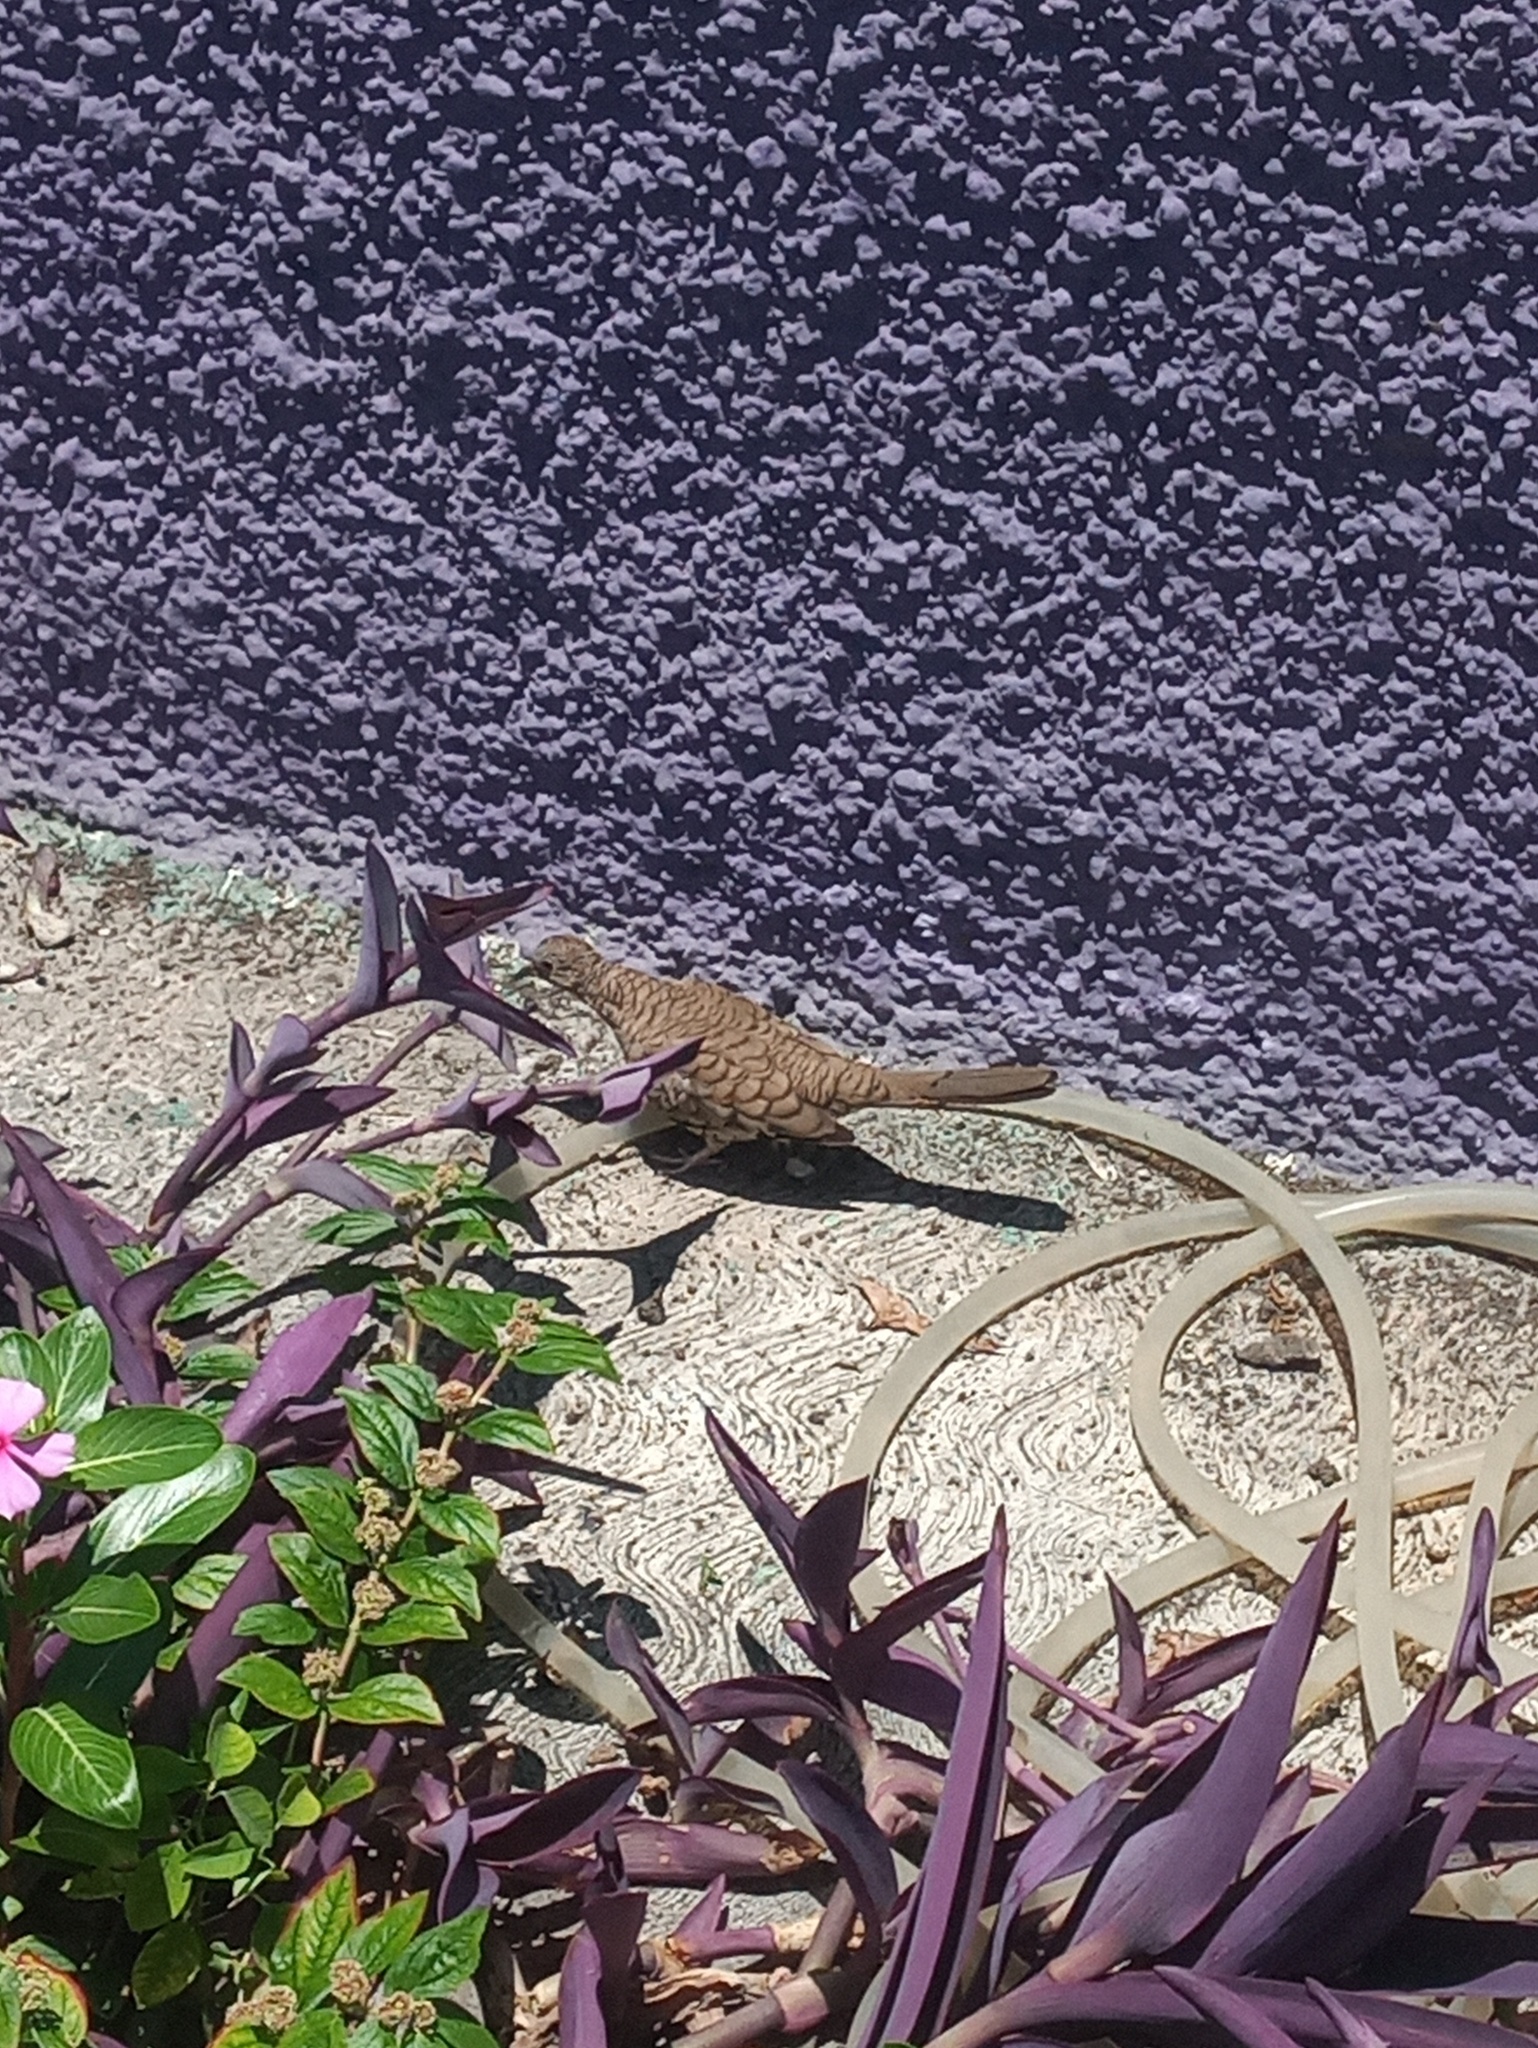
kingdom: Animalia
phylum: Chordata
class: Aves
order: Columbiformes
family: Columbidae
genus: Columbina
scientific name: Columbina inca
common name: Inca dove
